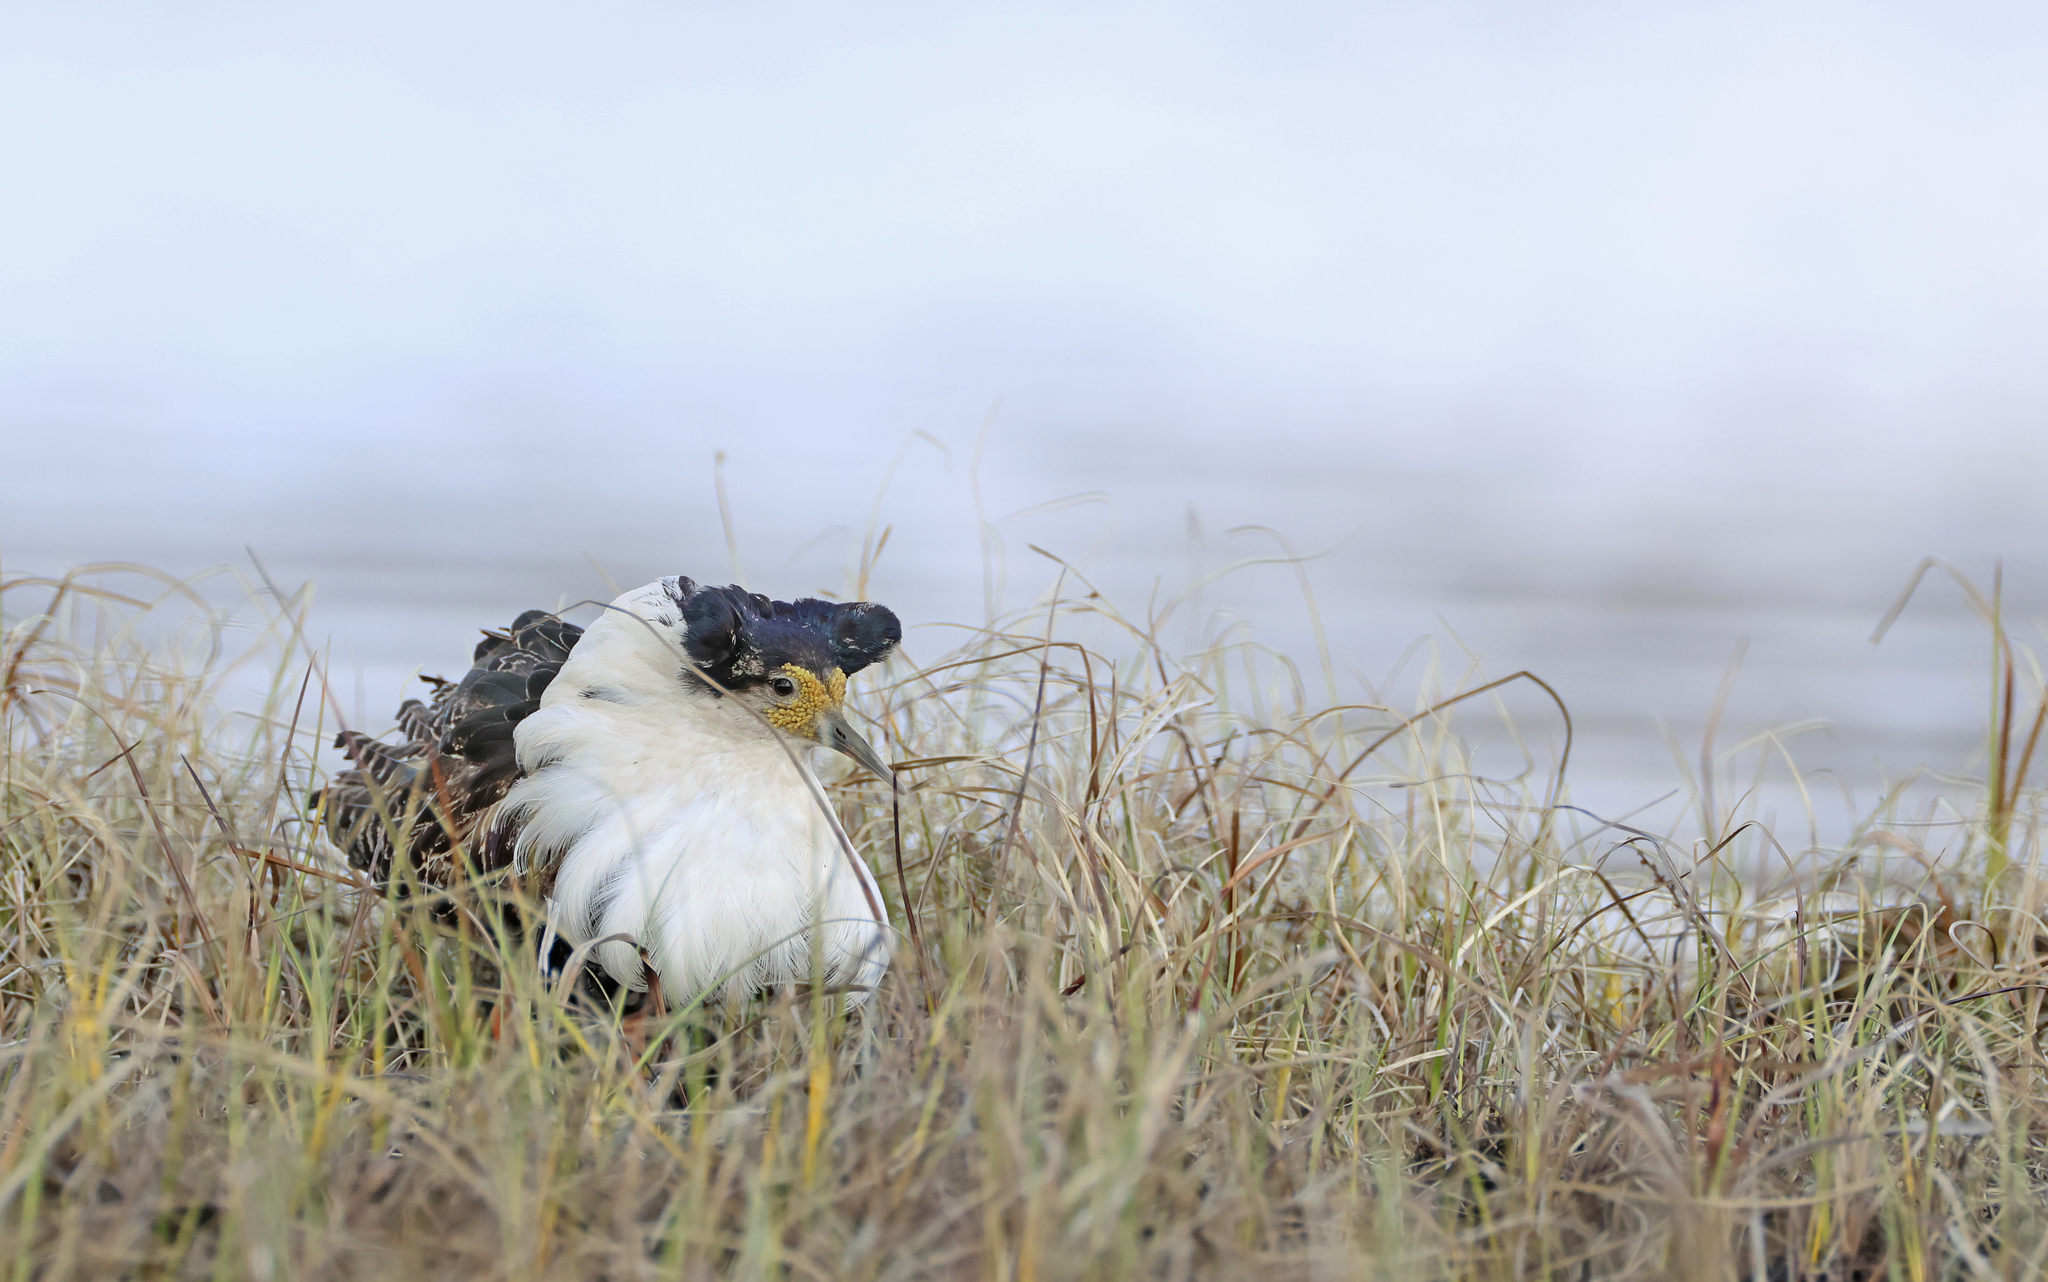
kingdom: Animalia
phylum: Chordata
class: Aves
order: Charadriiformes
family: Scolopacidae
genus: Calidris
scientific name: Calidris pugnax
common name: Ruff
